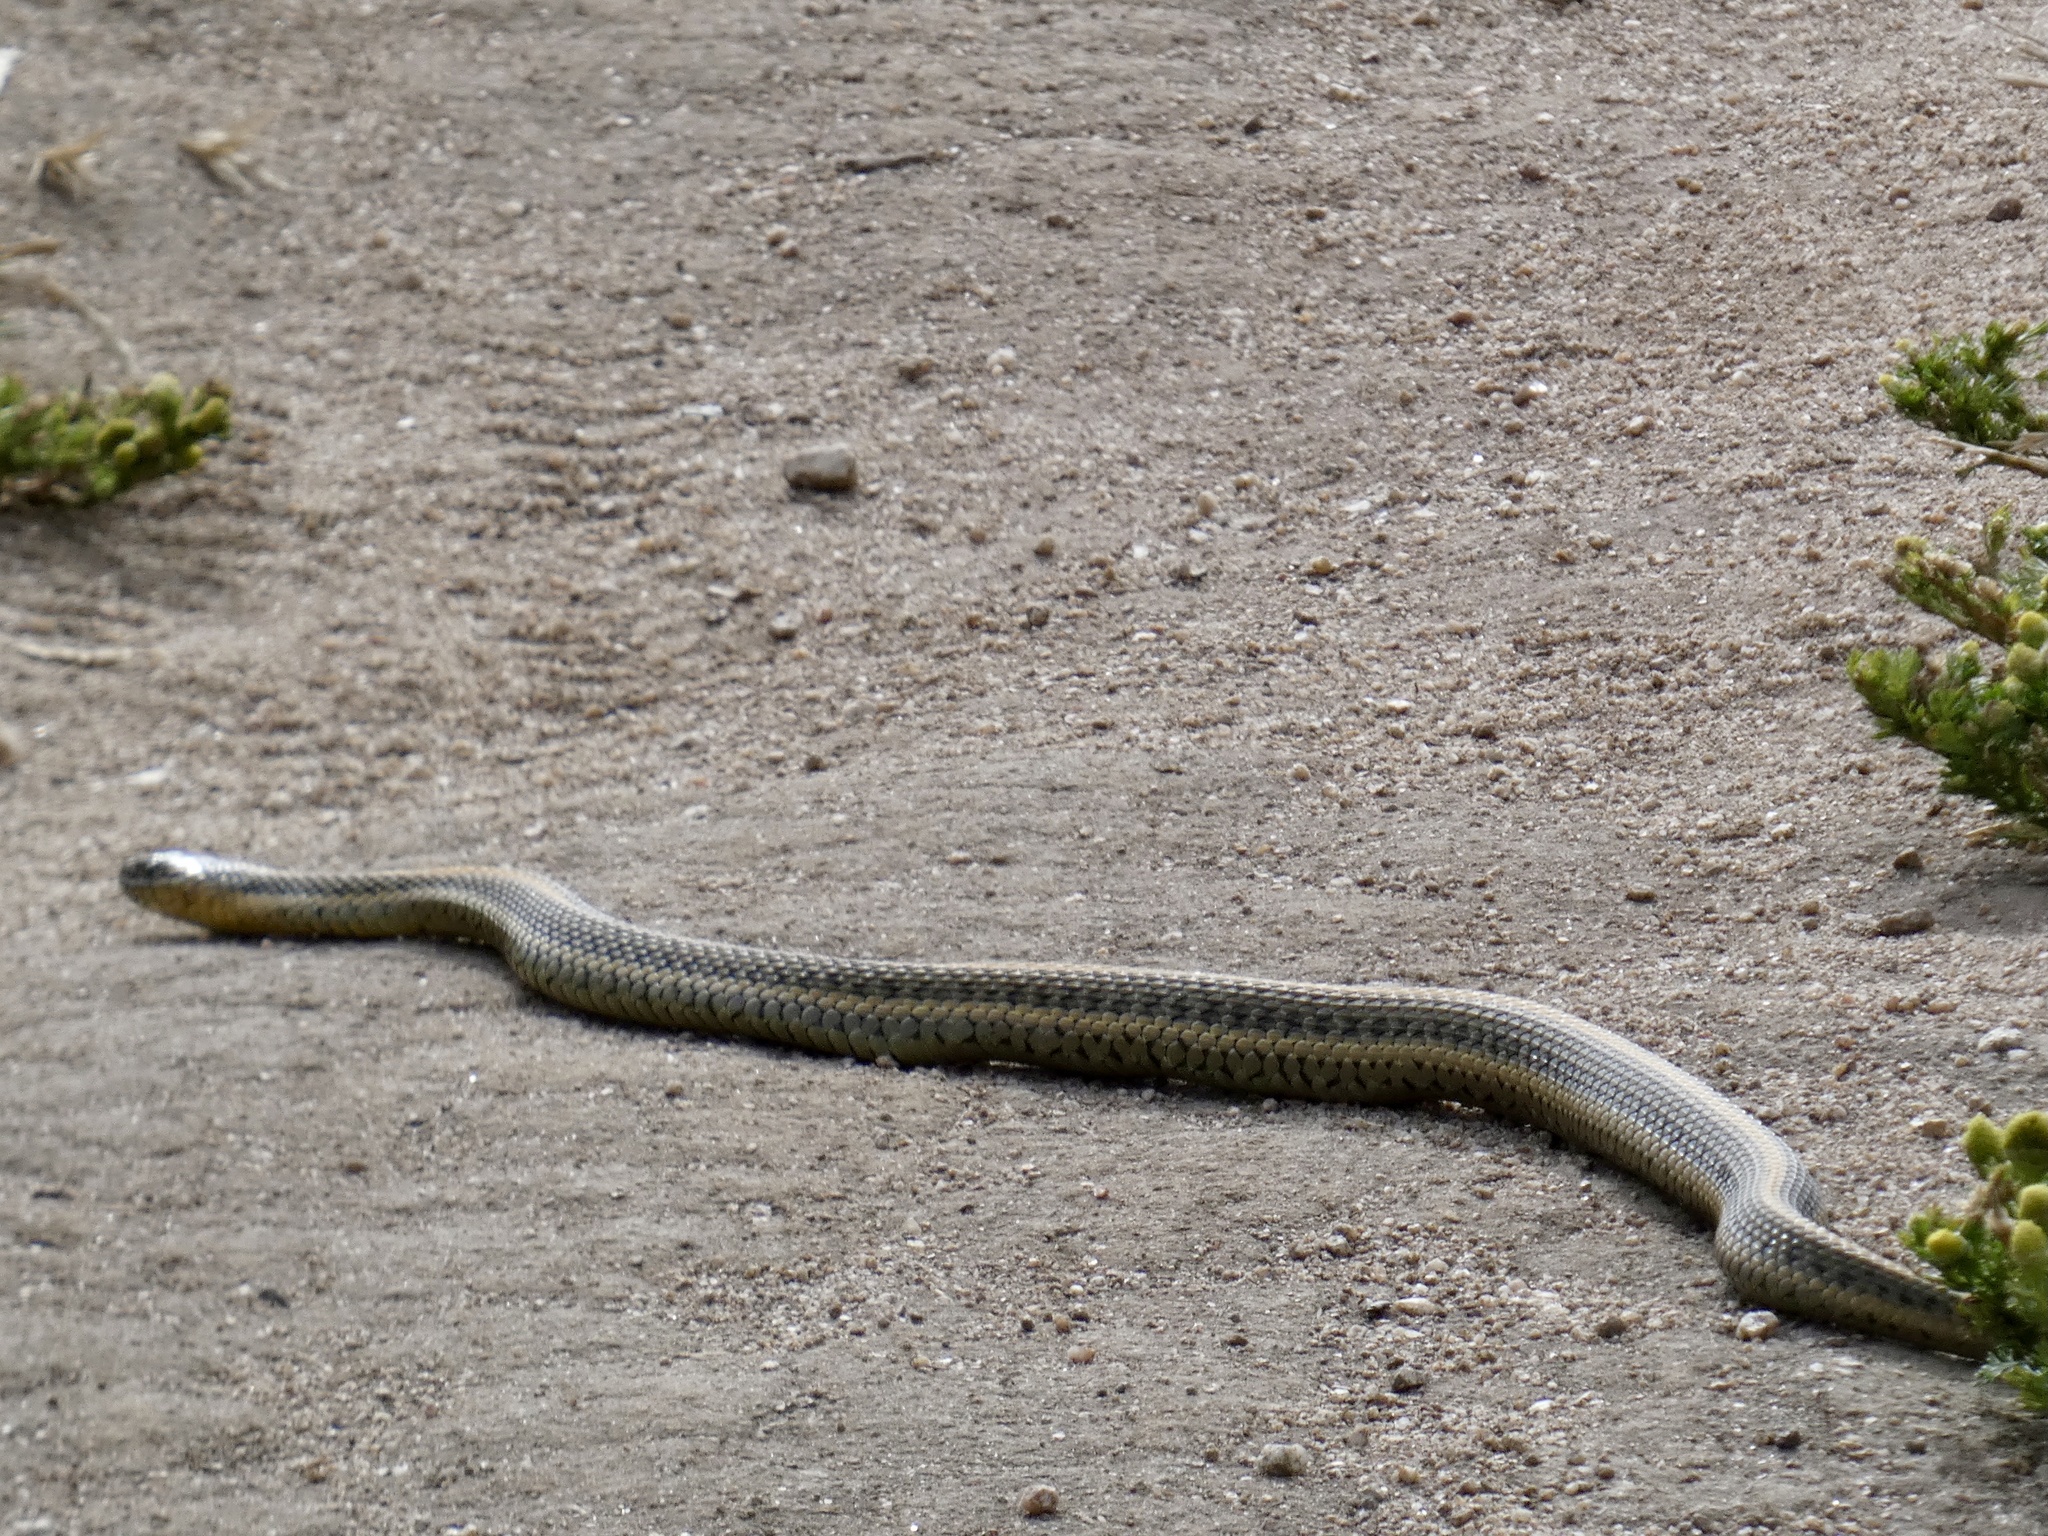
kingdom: Animalia
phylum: Chordata
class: Squamata
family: Colubridae
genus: Thamnophis
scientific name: Thamnophis atratus
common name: Pacific coast aquatic garter snake
